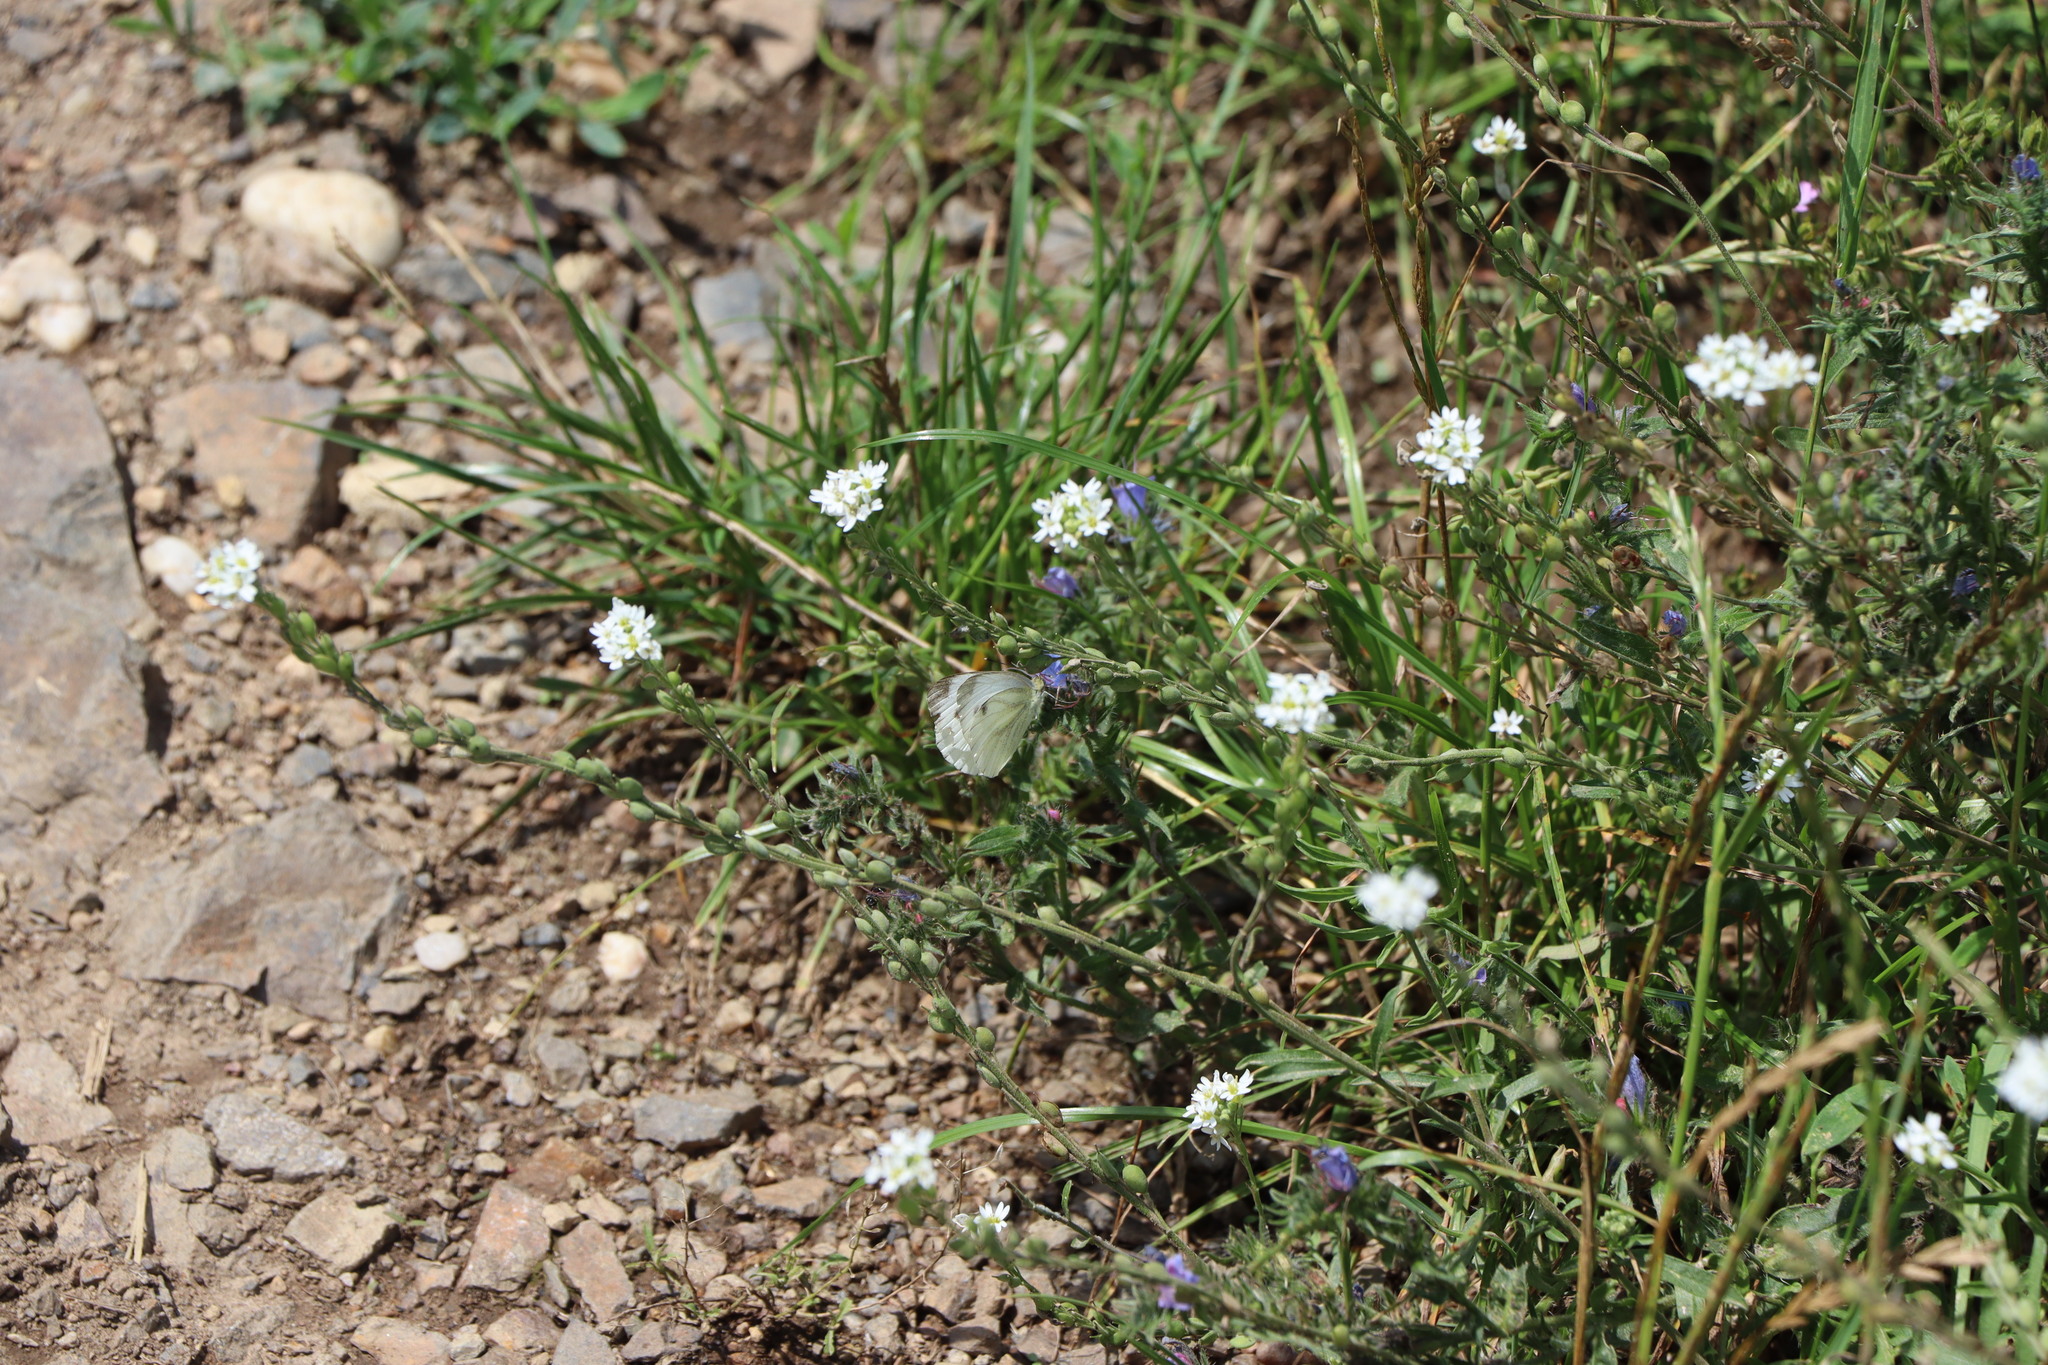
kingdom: Animalia
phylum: Arthropoda
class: Insecta
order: Lepidoptera
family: Pieridae
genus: Pieris
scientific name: Pieris napi
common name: Green-veined white
